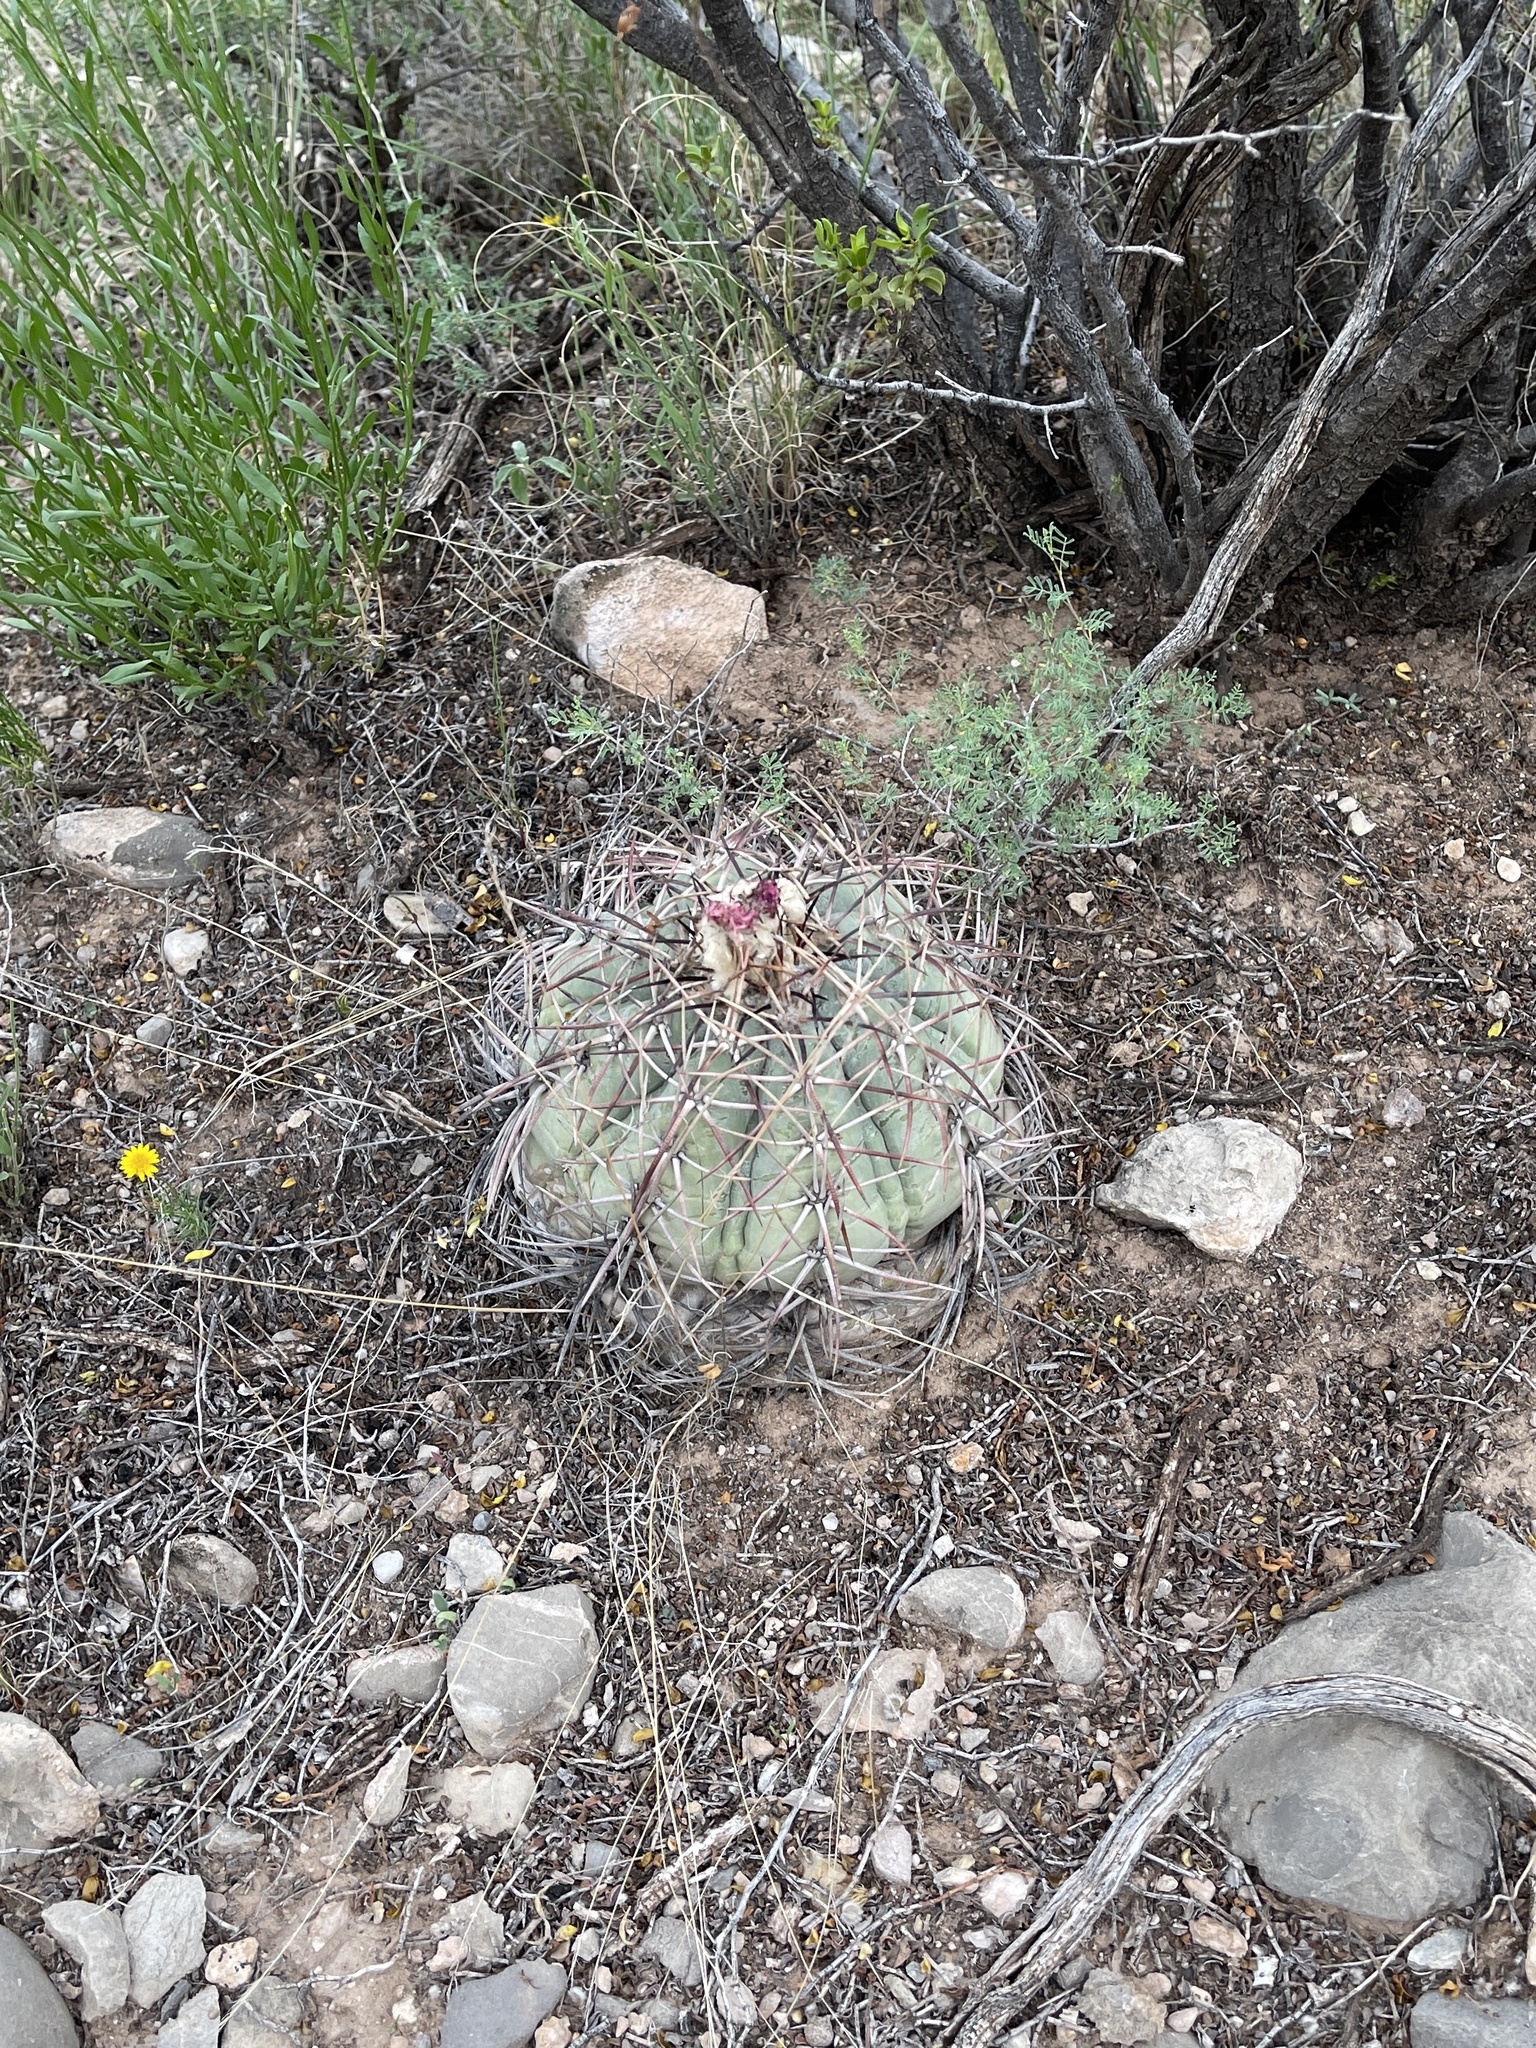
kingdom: Plantae
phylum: Tracheophyta
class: Magnoliopsida
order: Caryophyllales
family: Cactaceae
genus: Echinocactus
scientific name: Echinocactus horizonthalonius
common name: Devilshead
